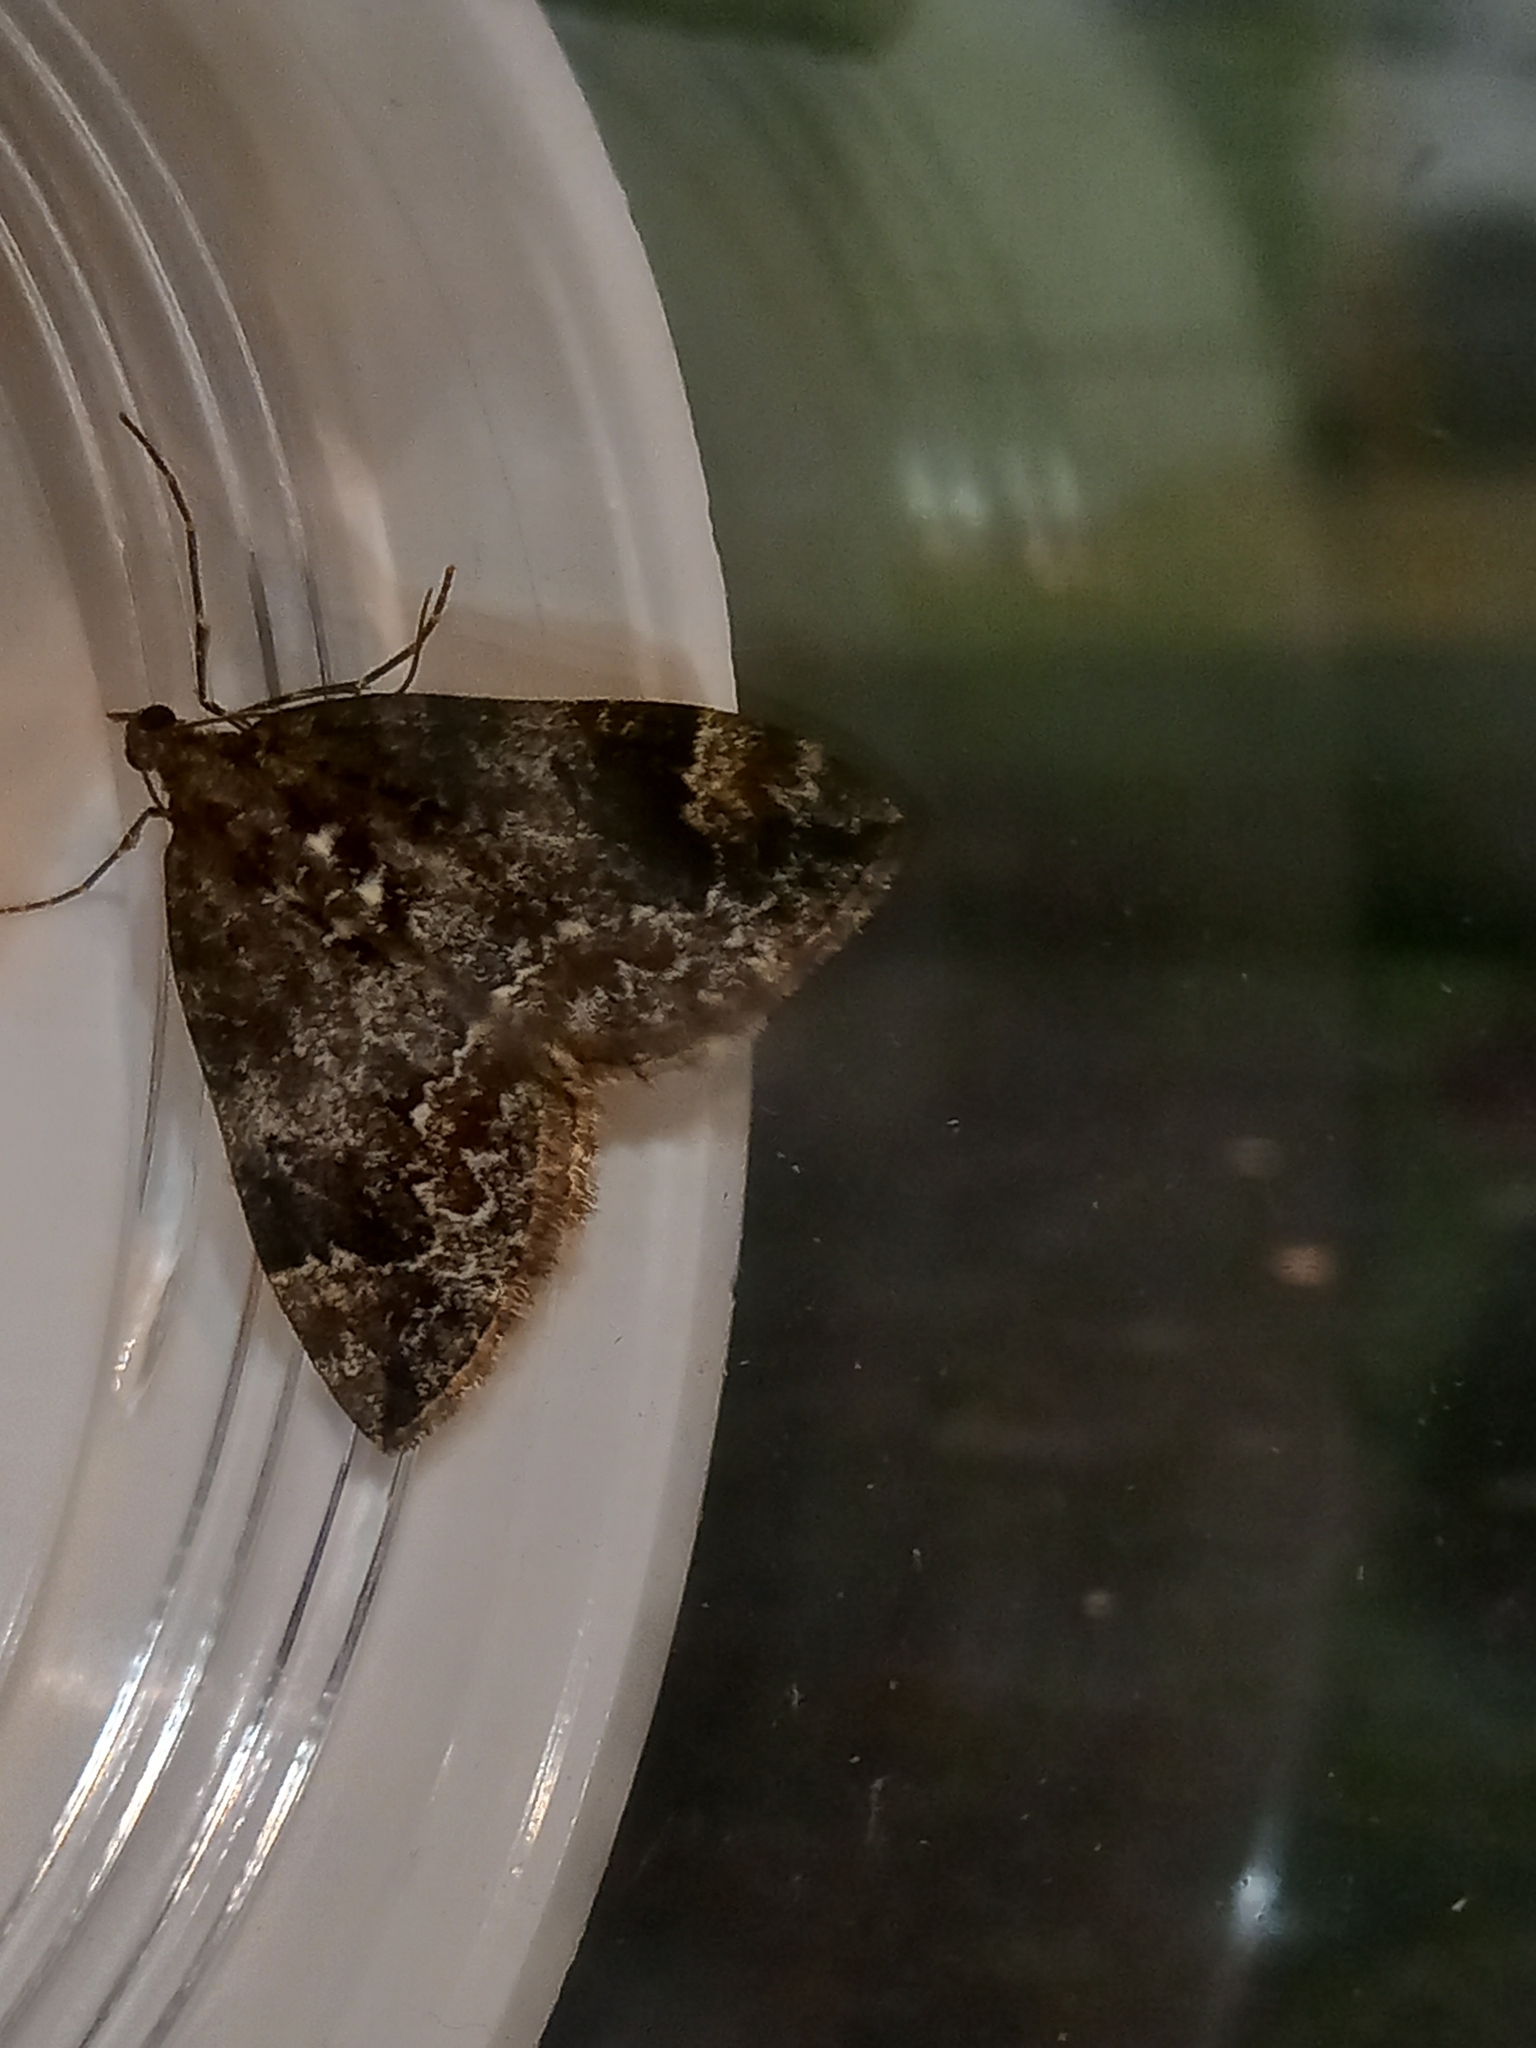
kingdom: Animalia
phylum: Arthropoda
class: Insecta
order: Lepidoptera
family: Geometridae
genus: Dysstroma
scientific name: Dysstroma truncata
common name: Common marbled carpet
